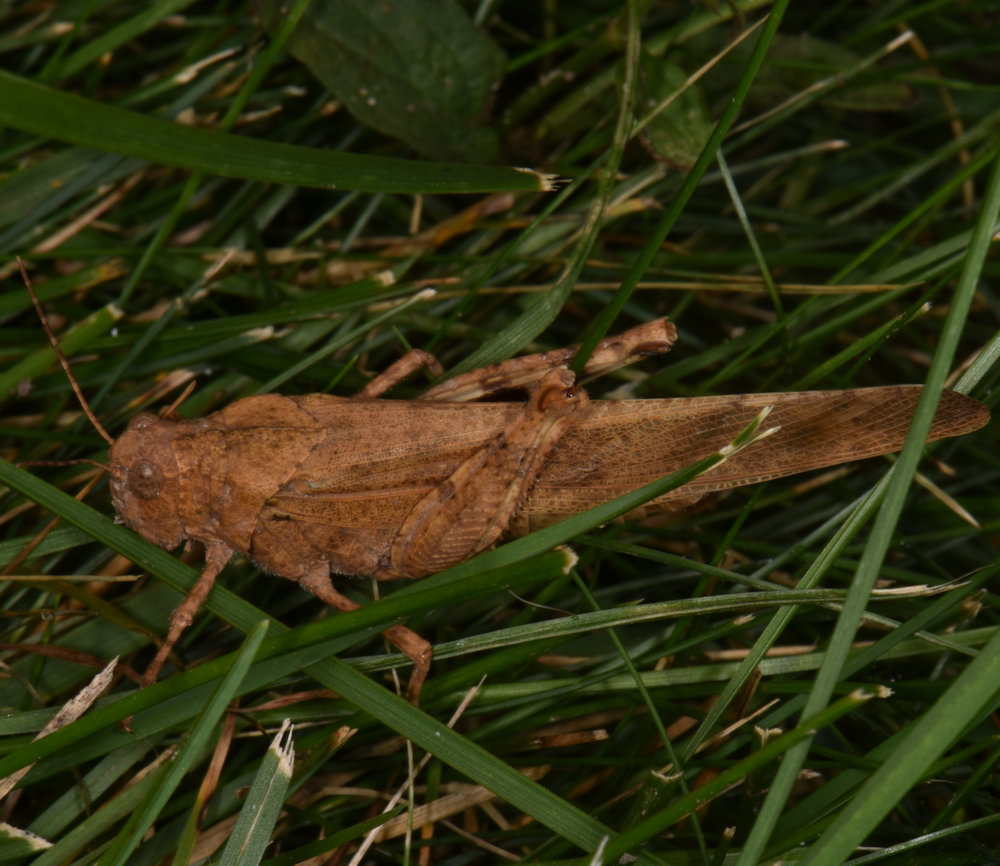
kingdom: Animalia
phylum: Arthropoda
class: Insecta
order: Orthoptera
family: Acrididae
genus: Dissosteira
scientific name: Dissosteira carolina
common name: Carolina grasshopper
